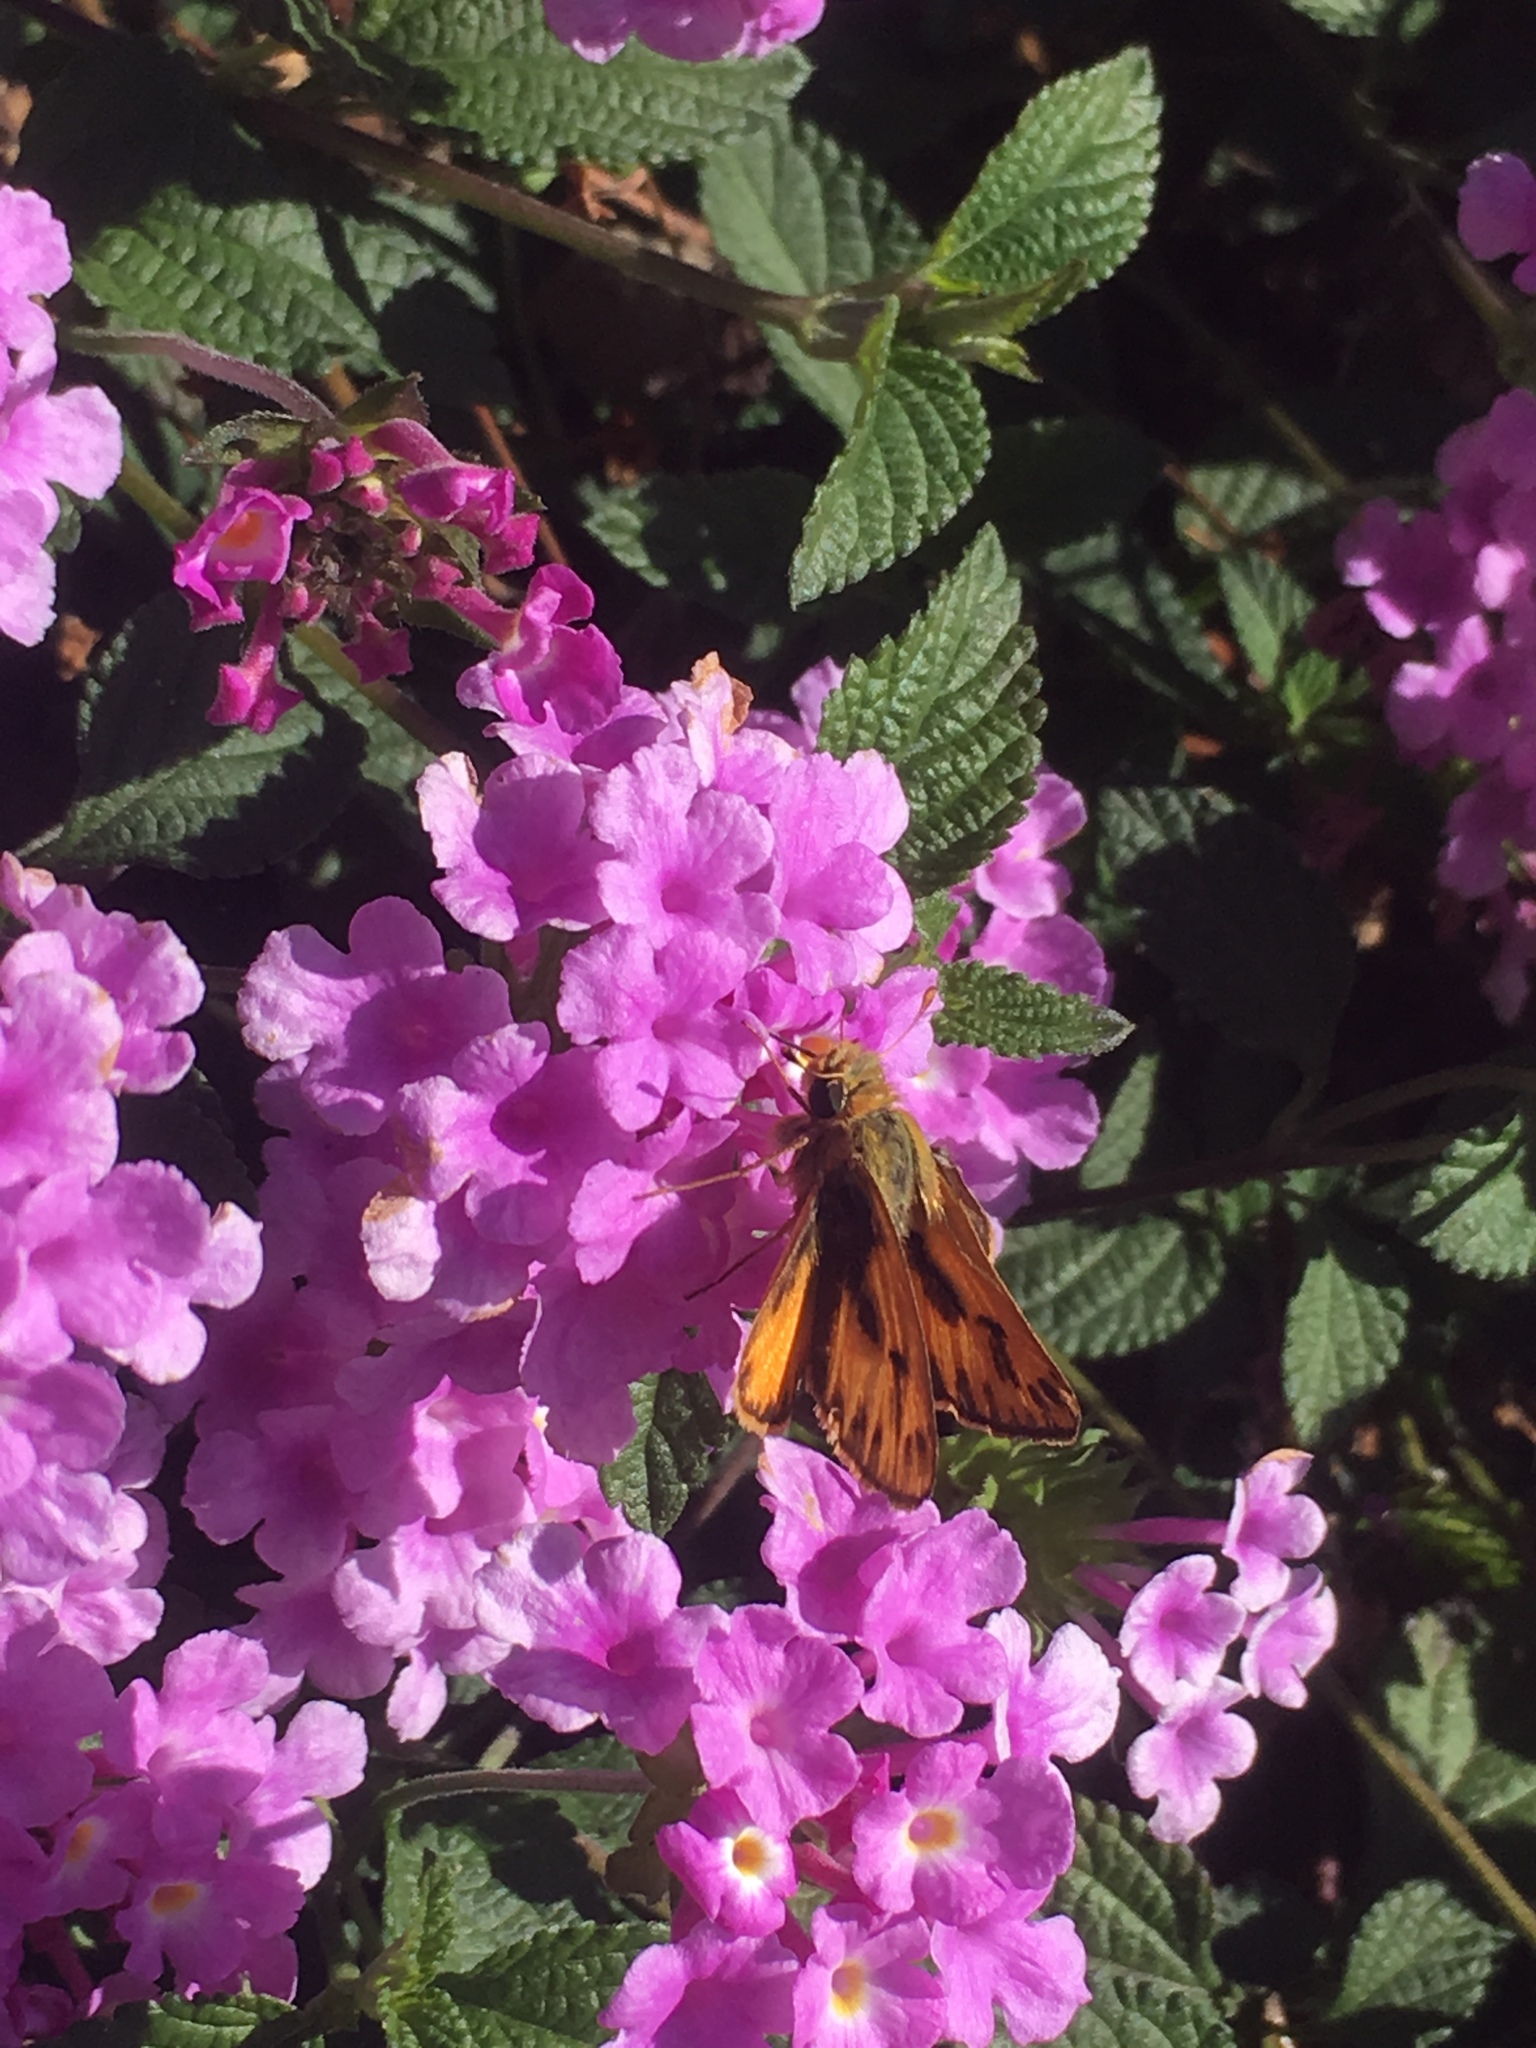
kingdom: Animalia
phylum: Arthropoda
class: Insecta
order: Lepidoptera
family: Hesperiidae
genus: Hylephila
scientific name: Hylephila phyleus
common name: Fiery skipper
